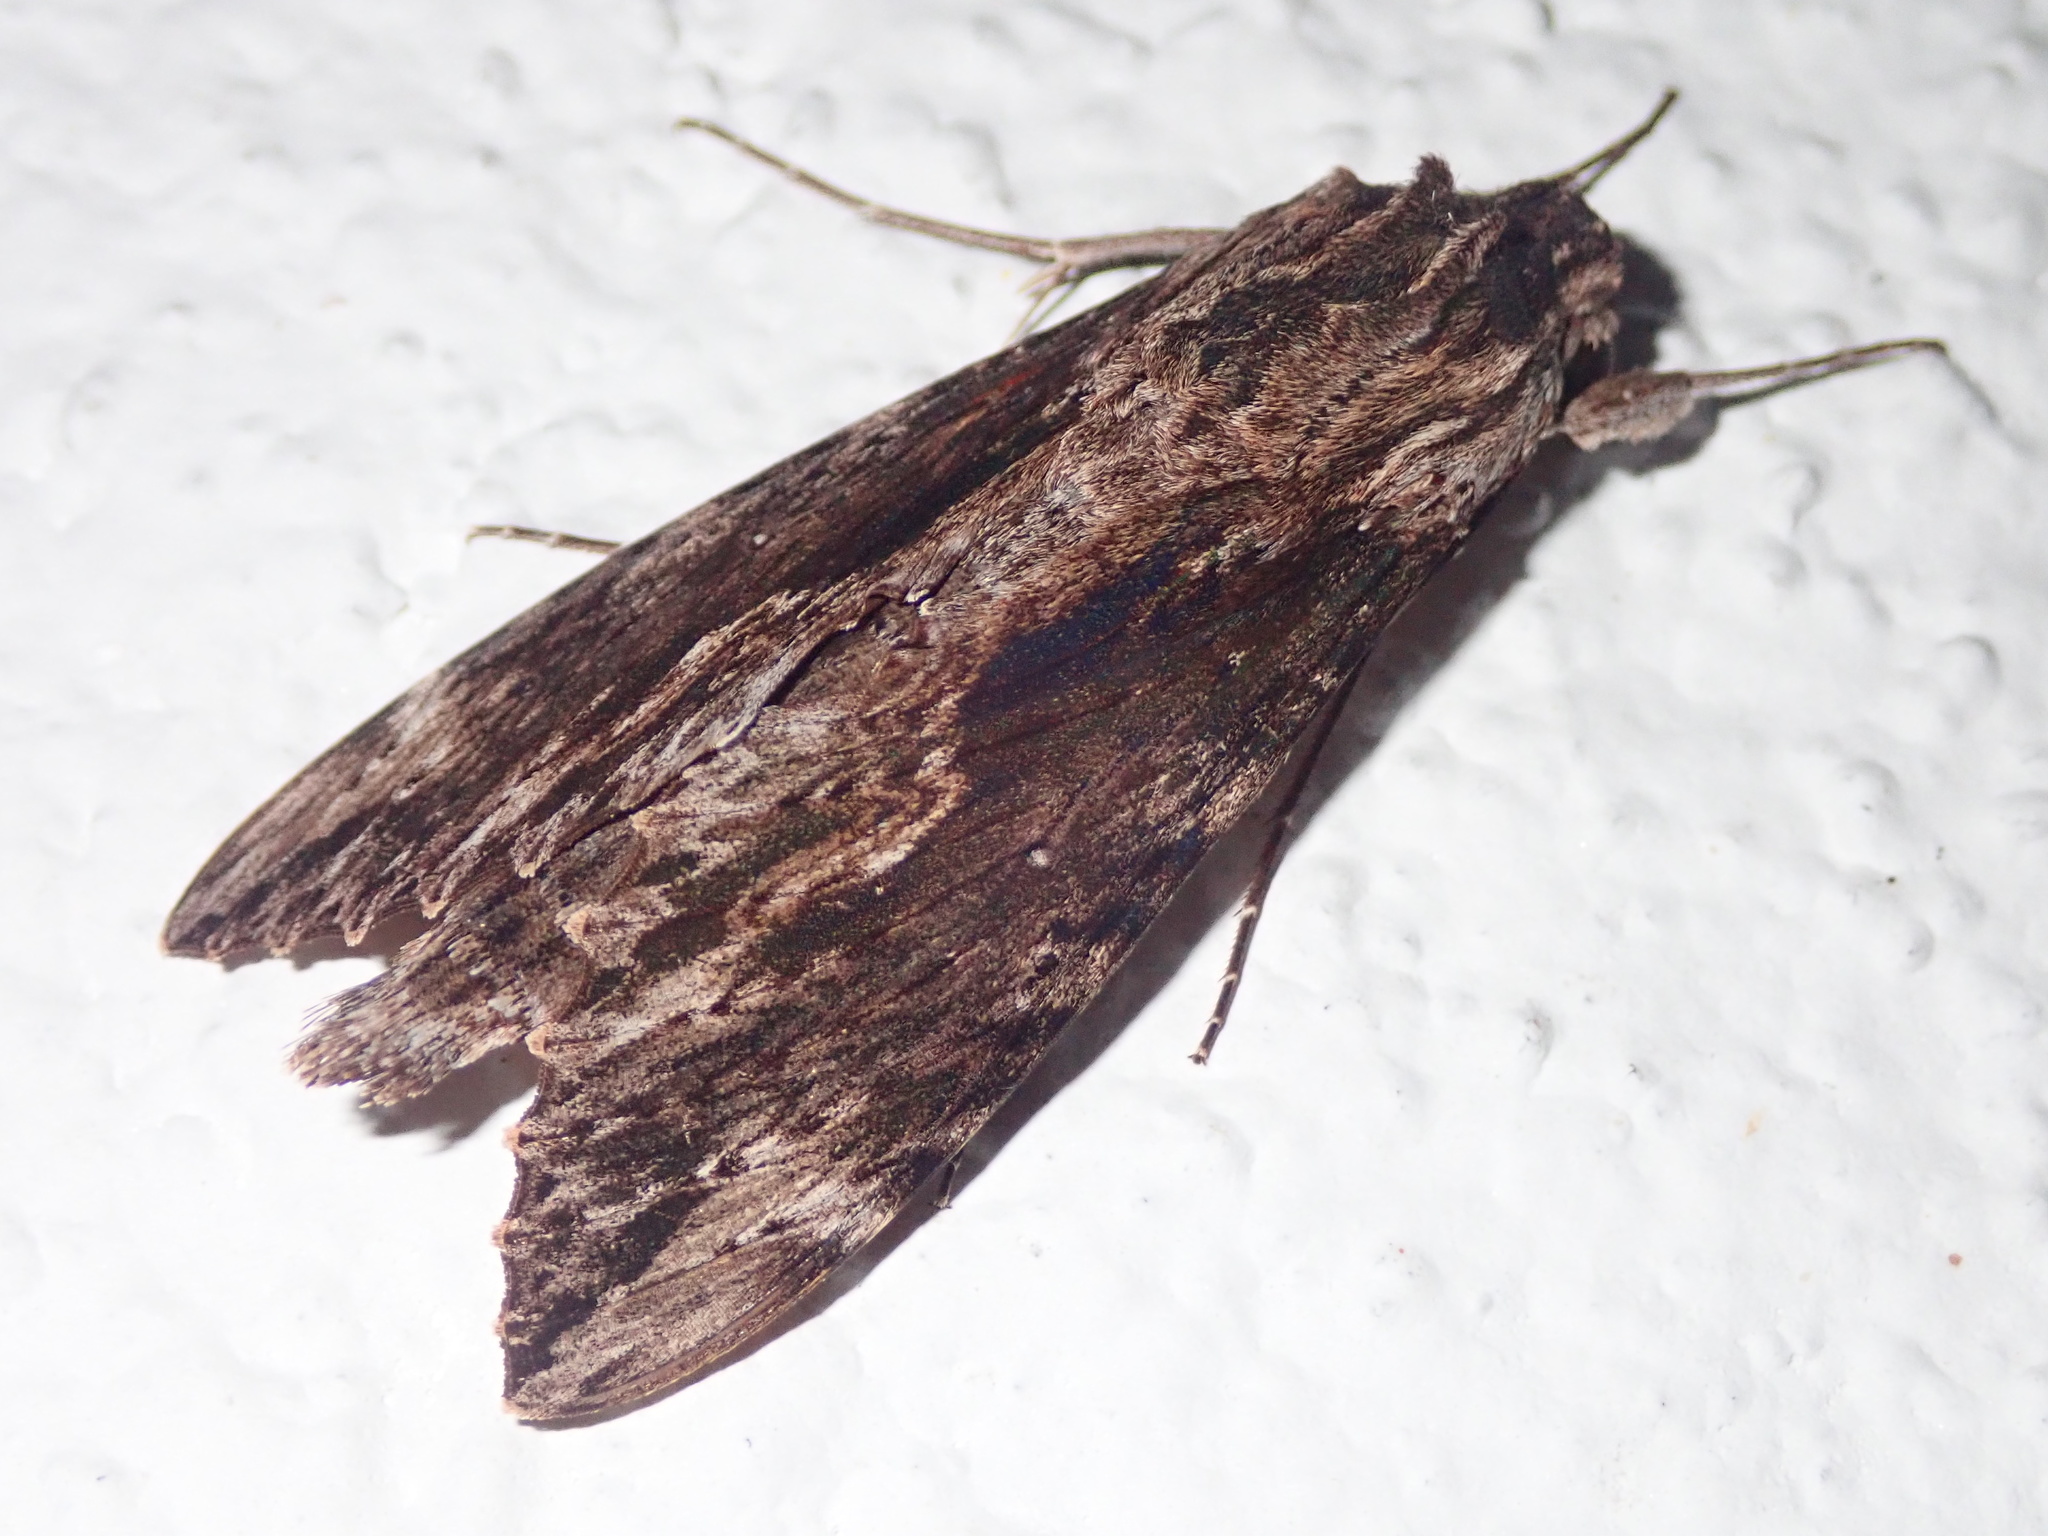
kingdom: Animalia
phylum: Arthropoda
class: Insecta
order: Lepidoptera
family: Sphingidae
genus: Erinnyis
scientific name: Erinnyis oenotrus
